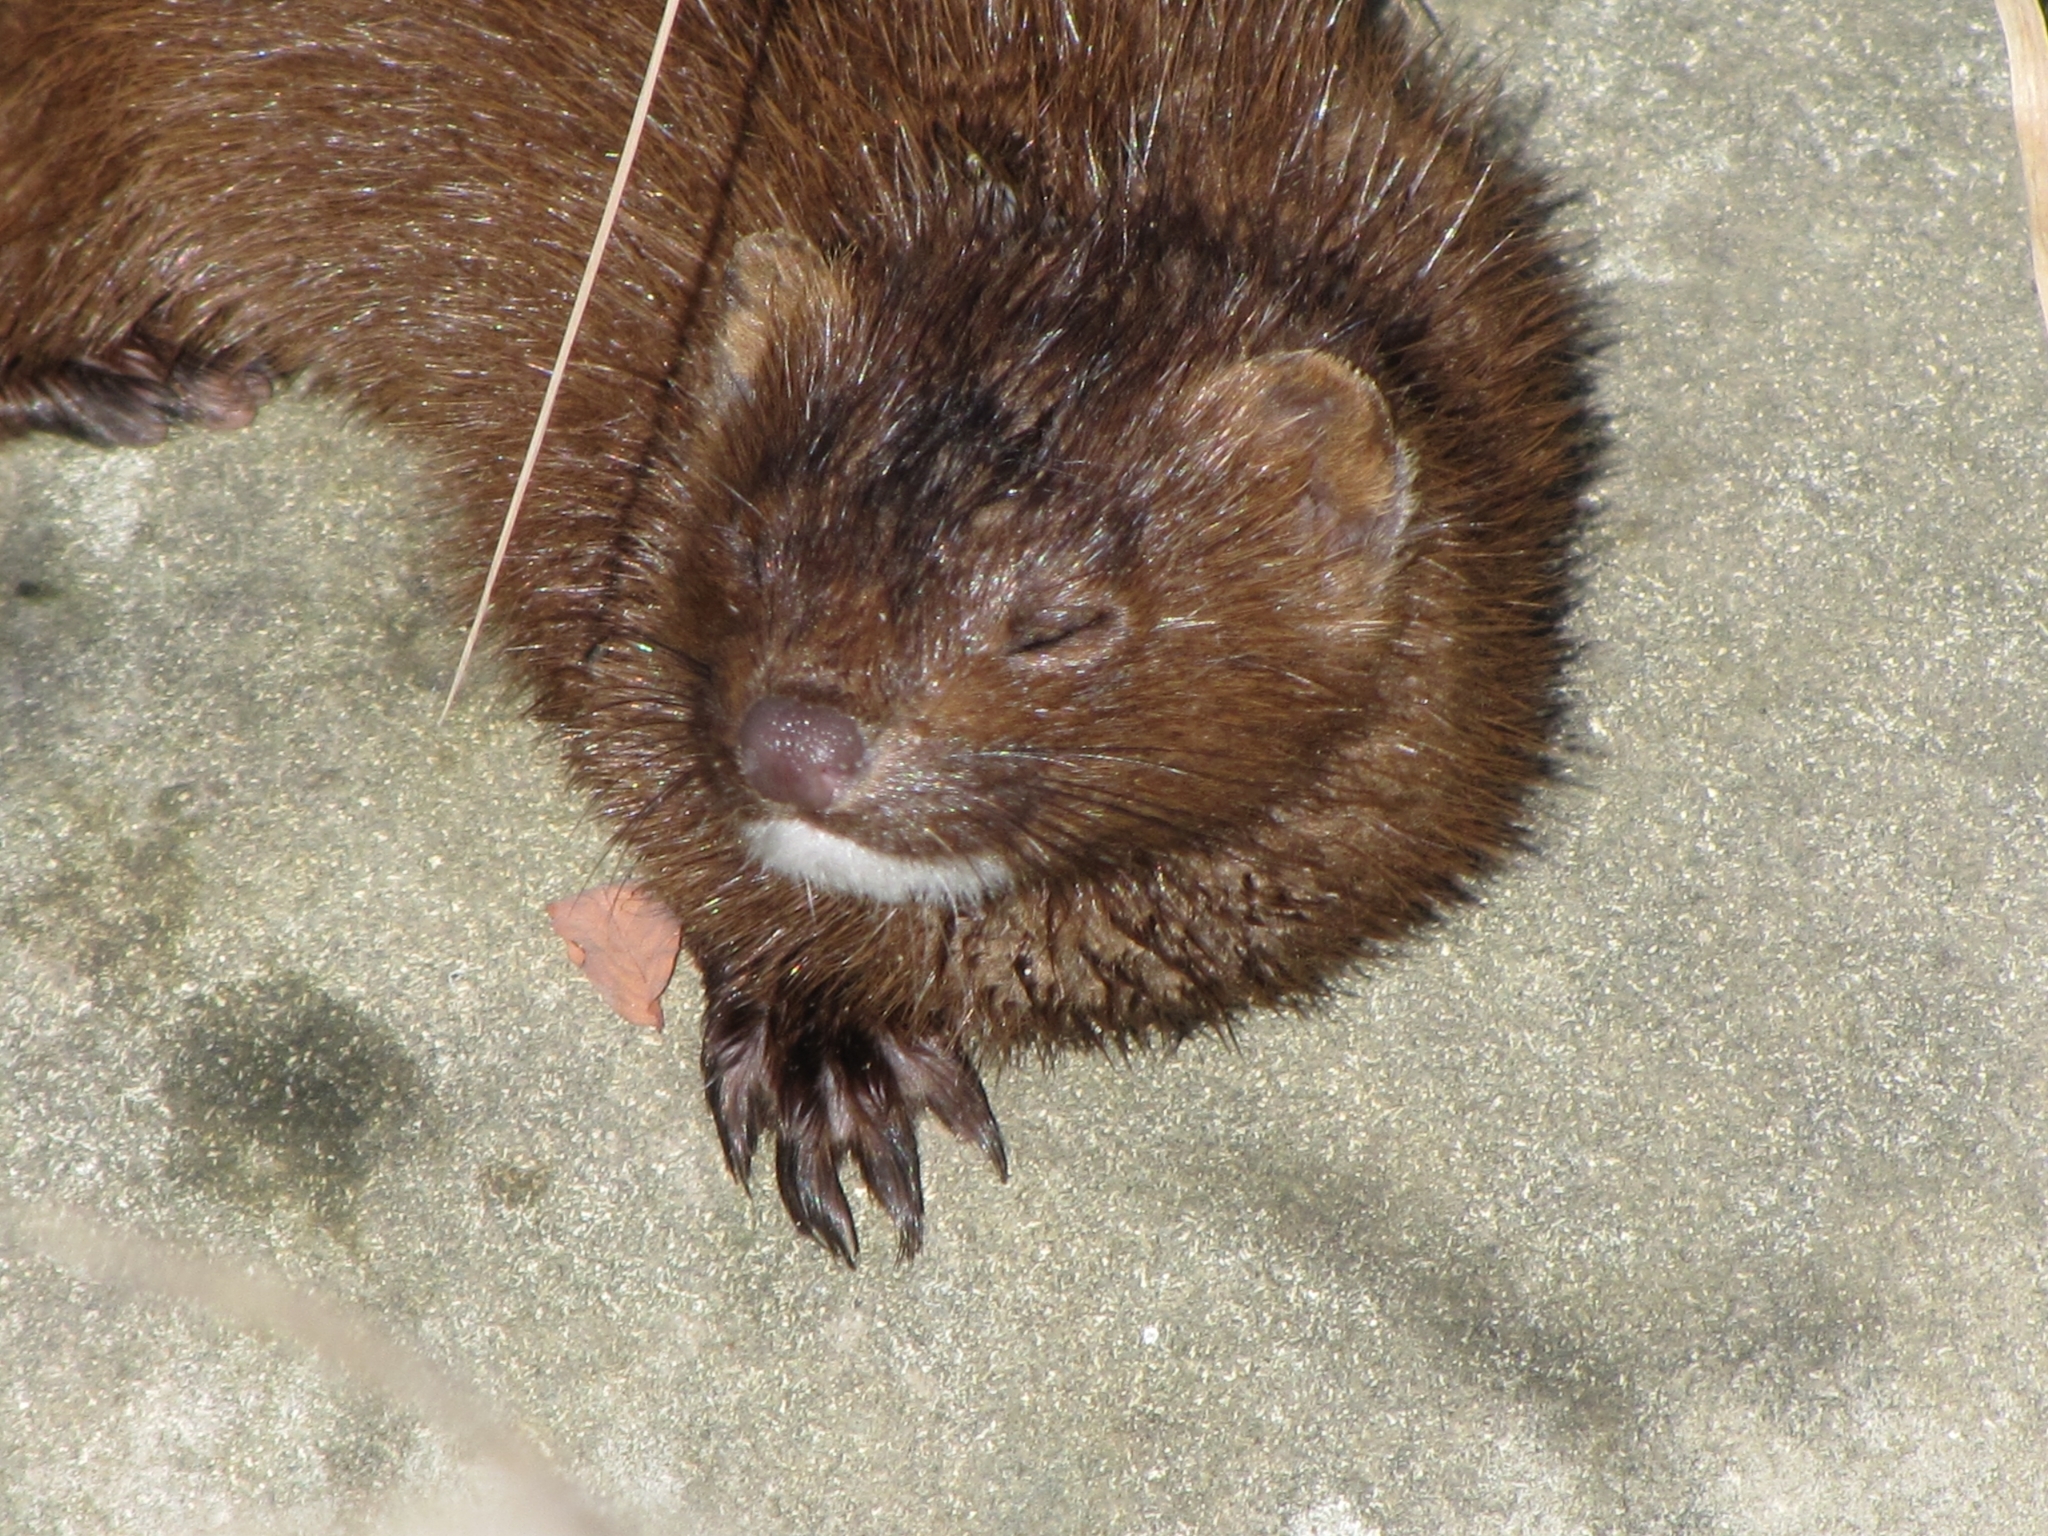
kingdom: Animalia
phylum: Chordata
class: Mammalia
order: Carnivora
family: Mustelidae
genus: Mustela
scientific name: Mustela
